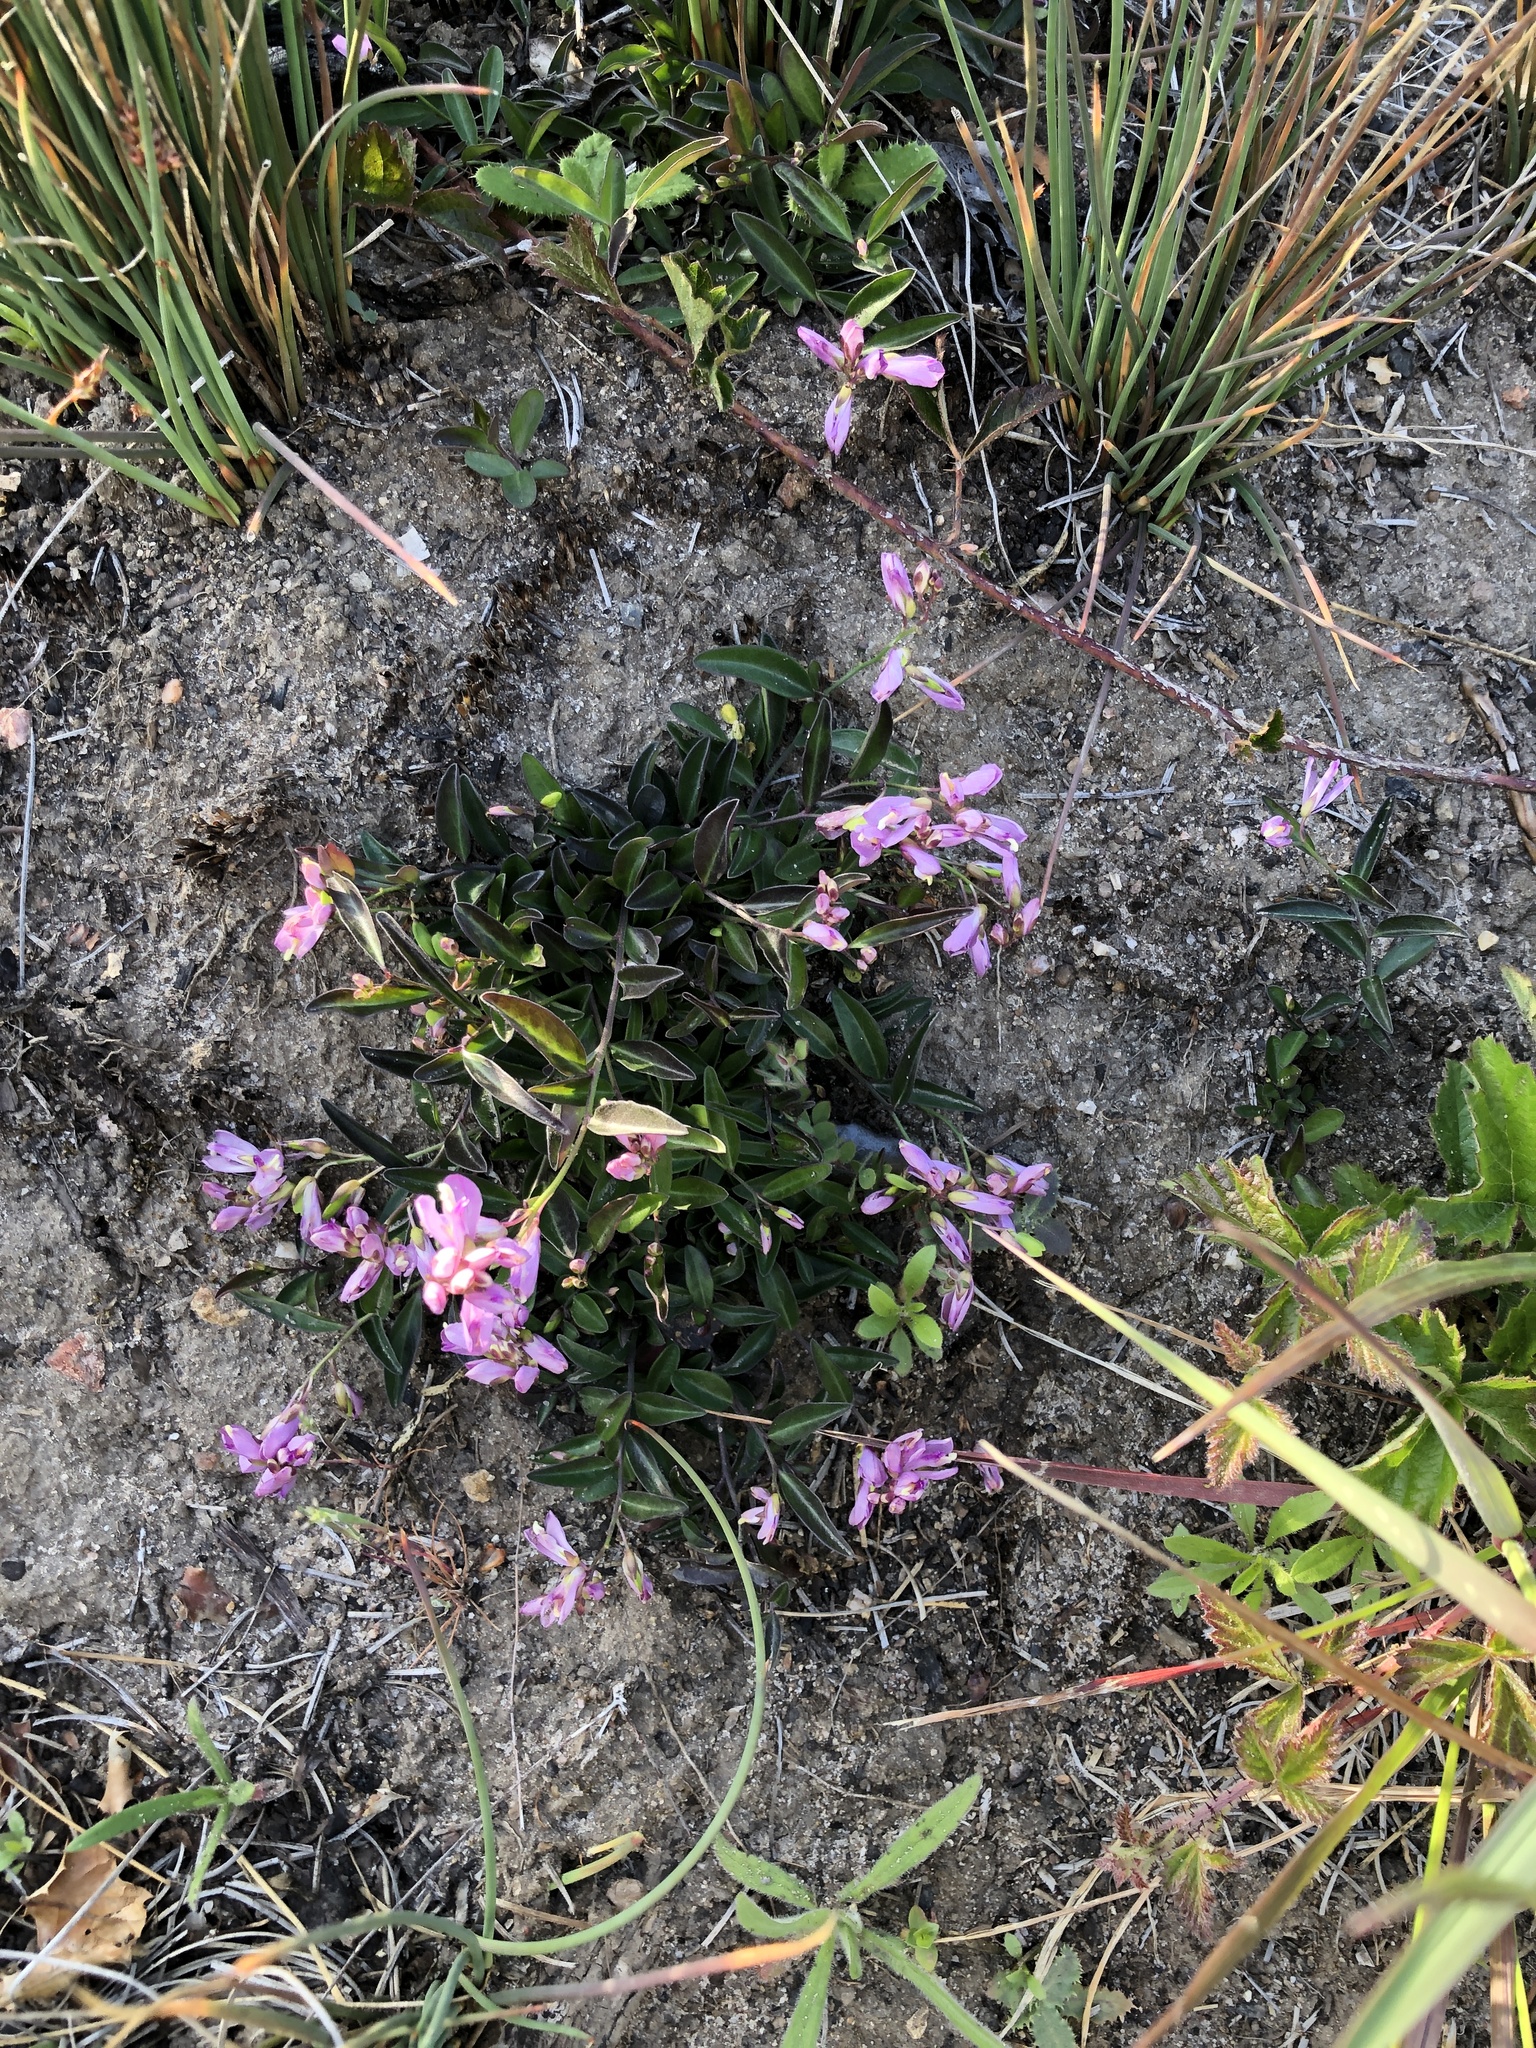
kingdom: Plantae
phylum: Tracheophyta
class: Magnoliopsida
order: Fabales
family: Polygalaceae
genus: Rhinotropis
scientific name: Rhinotropis californica
